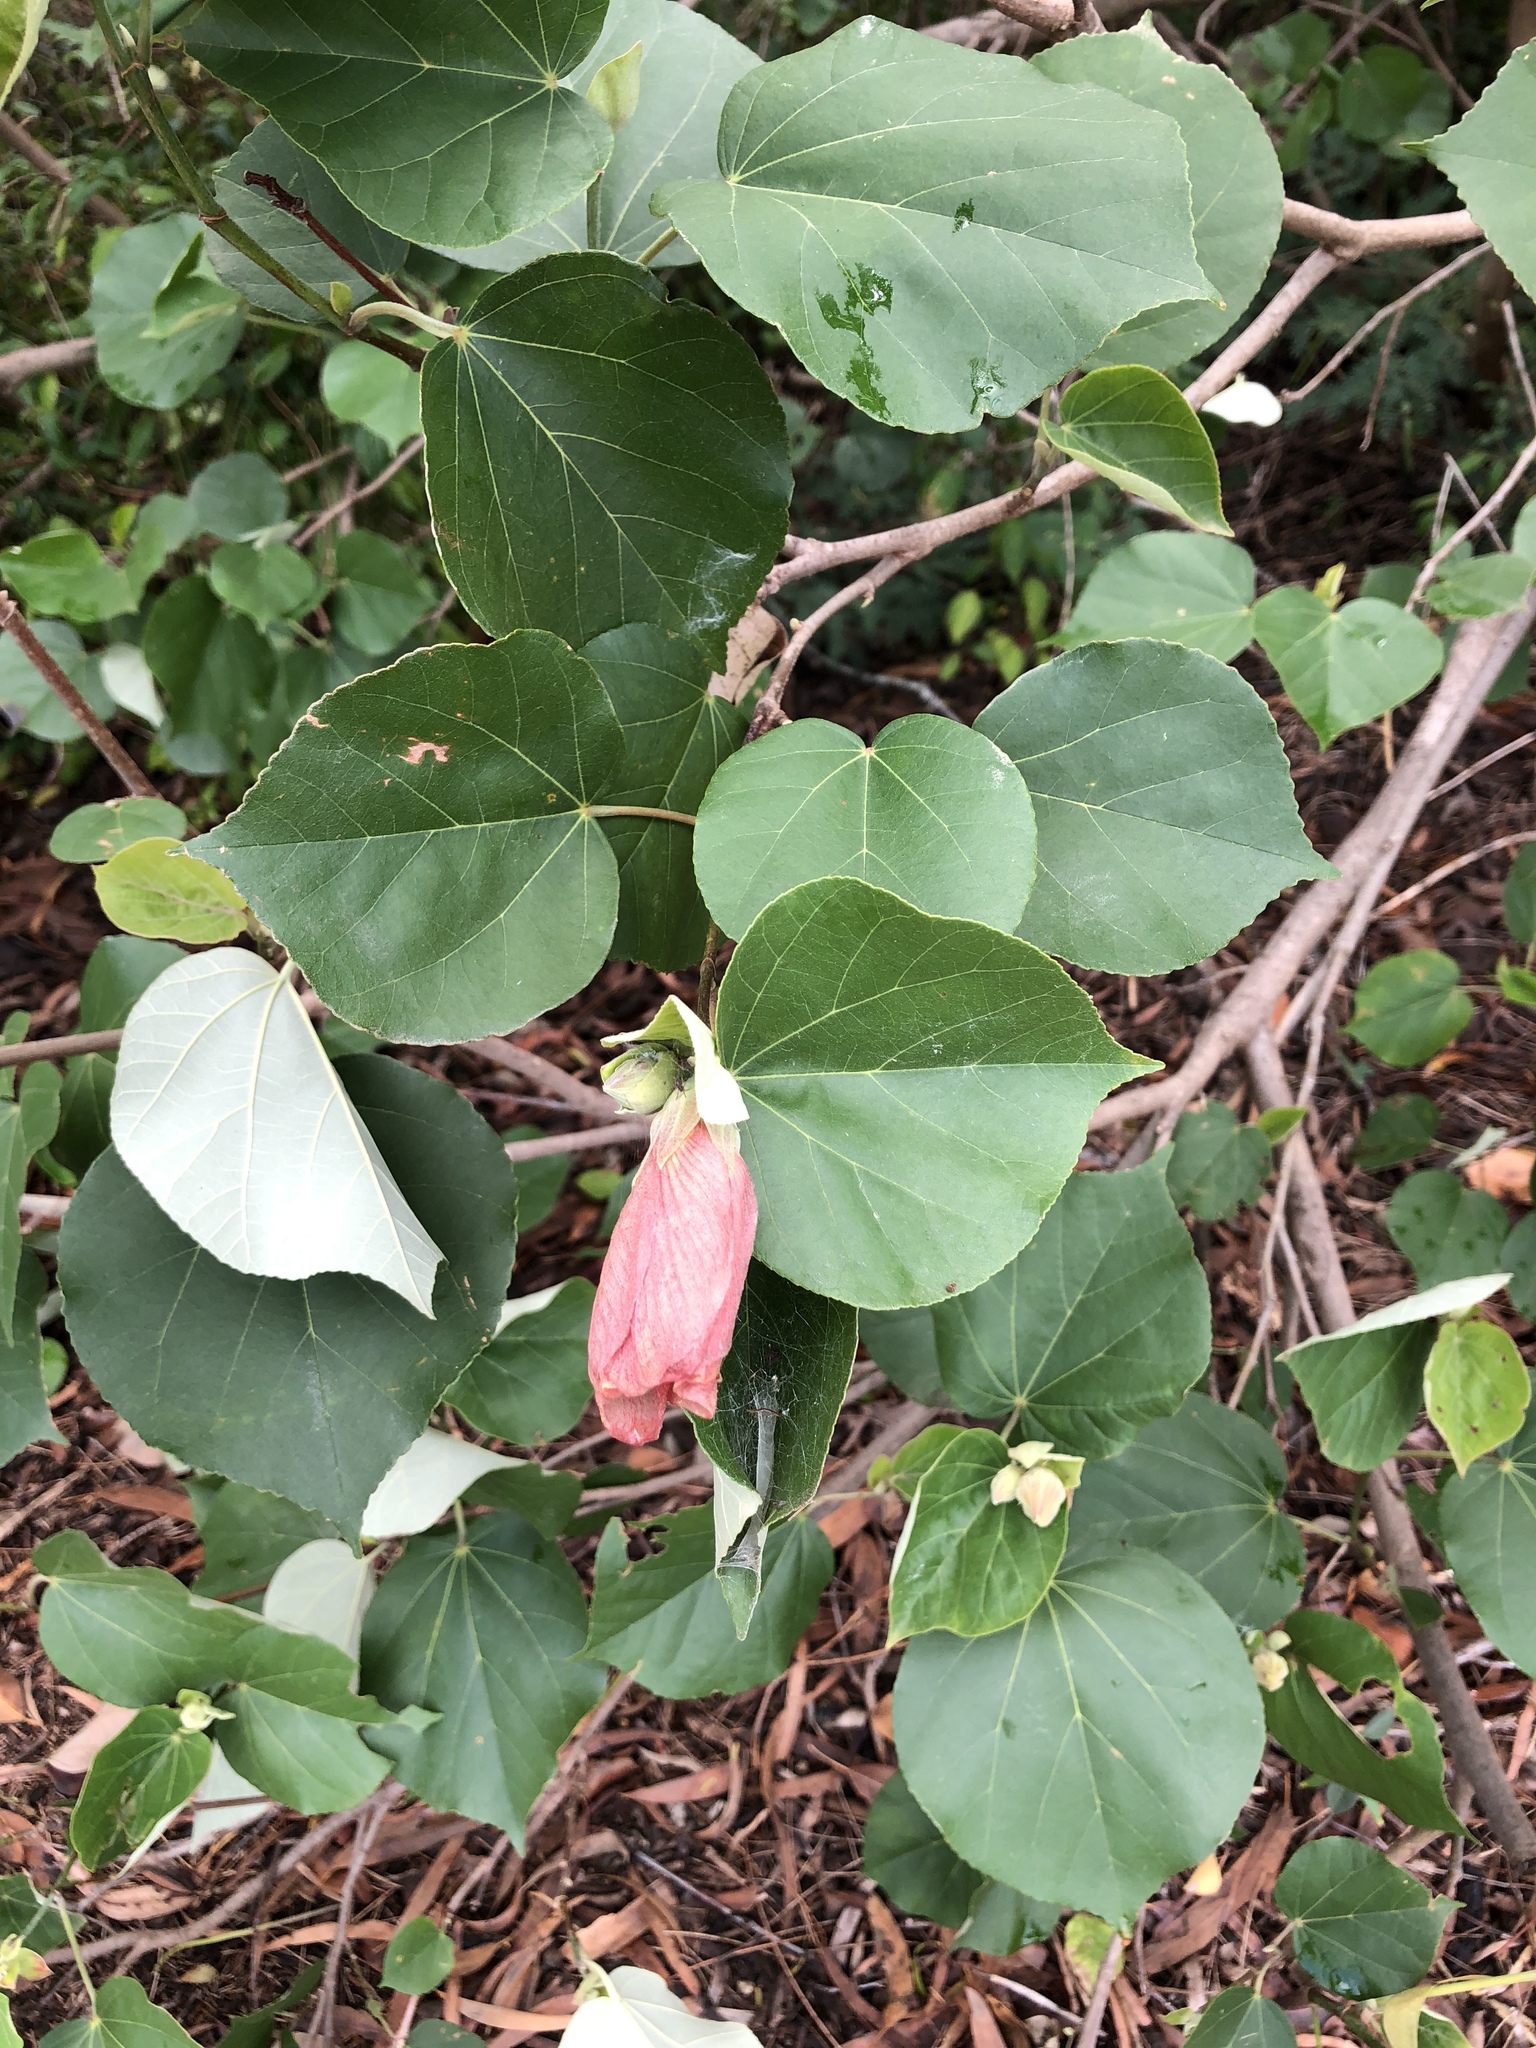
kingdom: Plantae
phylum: Tracheophyta
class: Magnoliopsida
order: Malvales
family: Malvaceae
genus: Talipariti
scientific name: Talipariti tiliaceum
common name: Sea hibiscus
